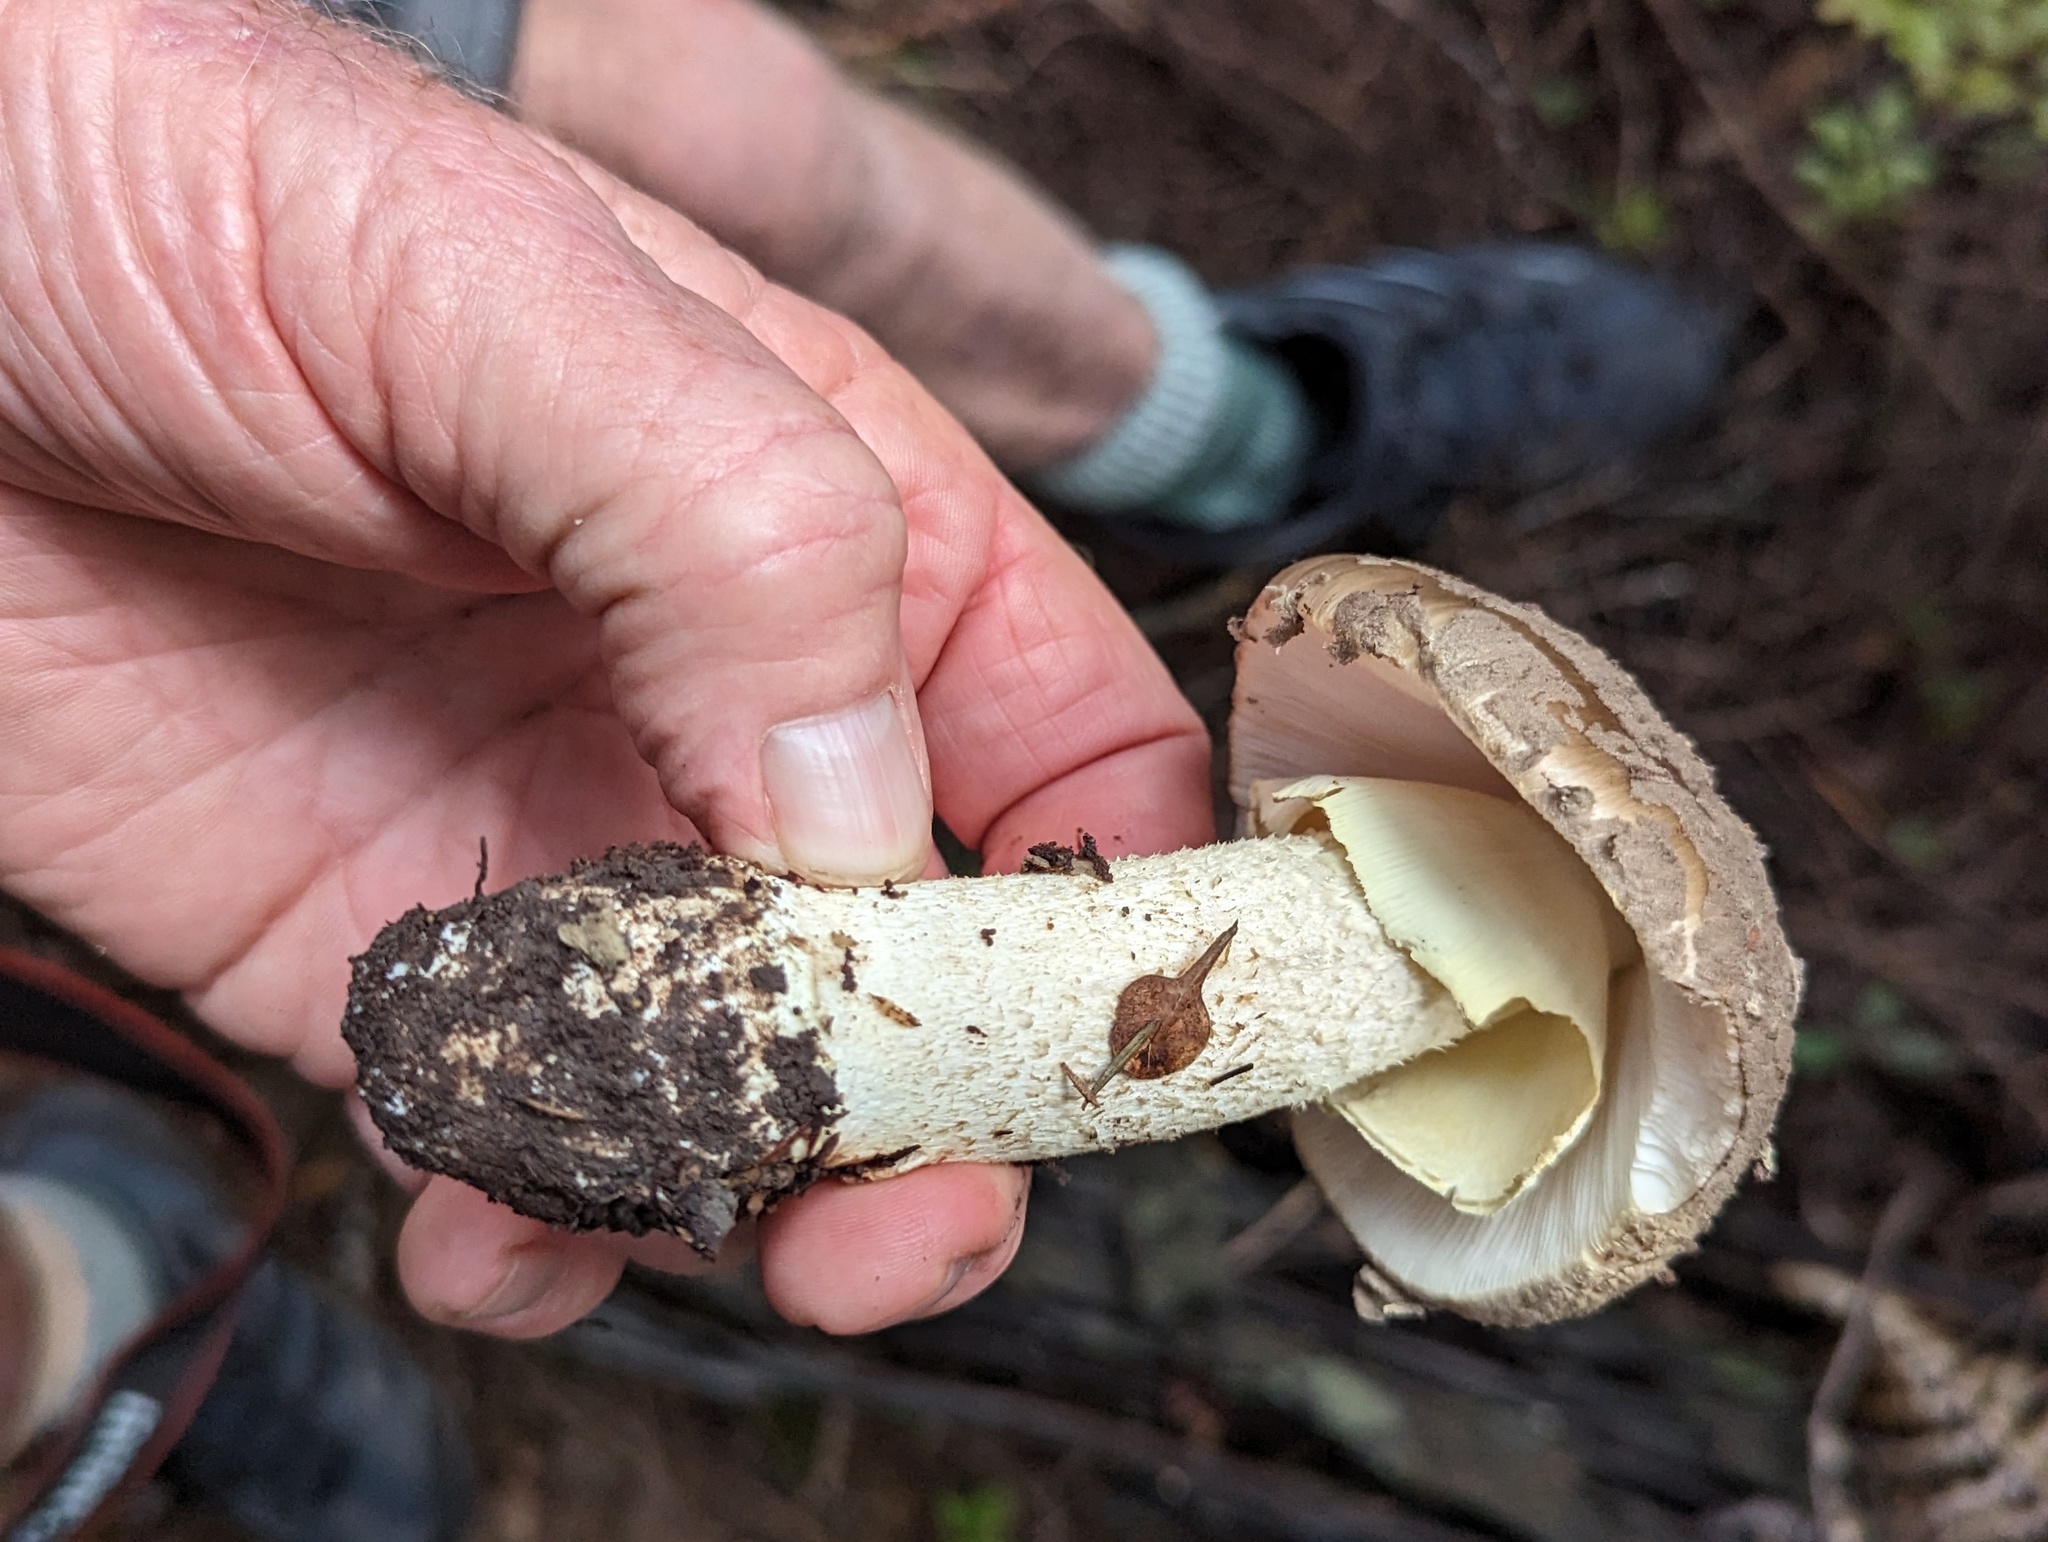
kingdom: Fungi
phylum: Basidiomycota
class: Agaricomycetes
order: Agaricales
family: Amanitaceae
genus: Amanita
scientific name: Amanita nothofagi
